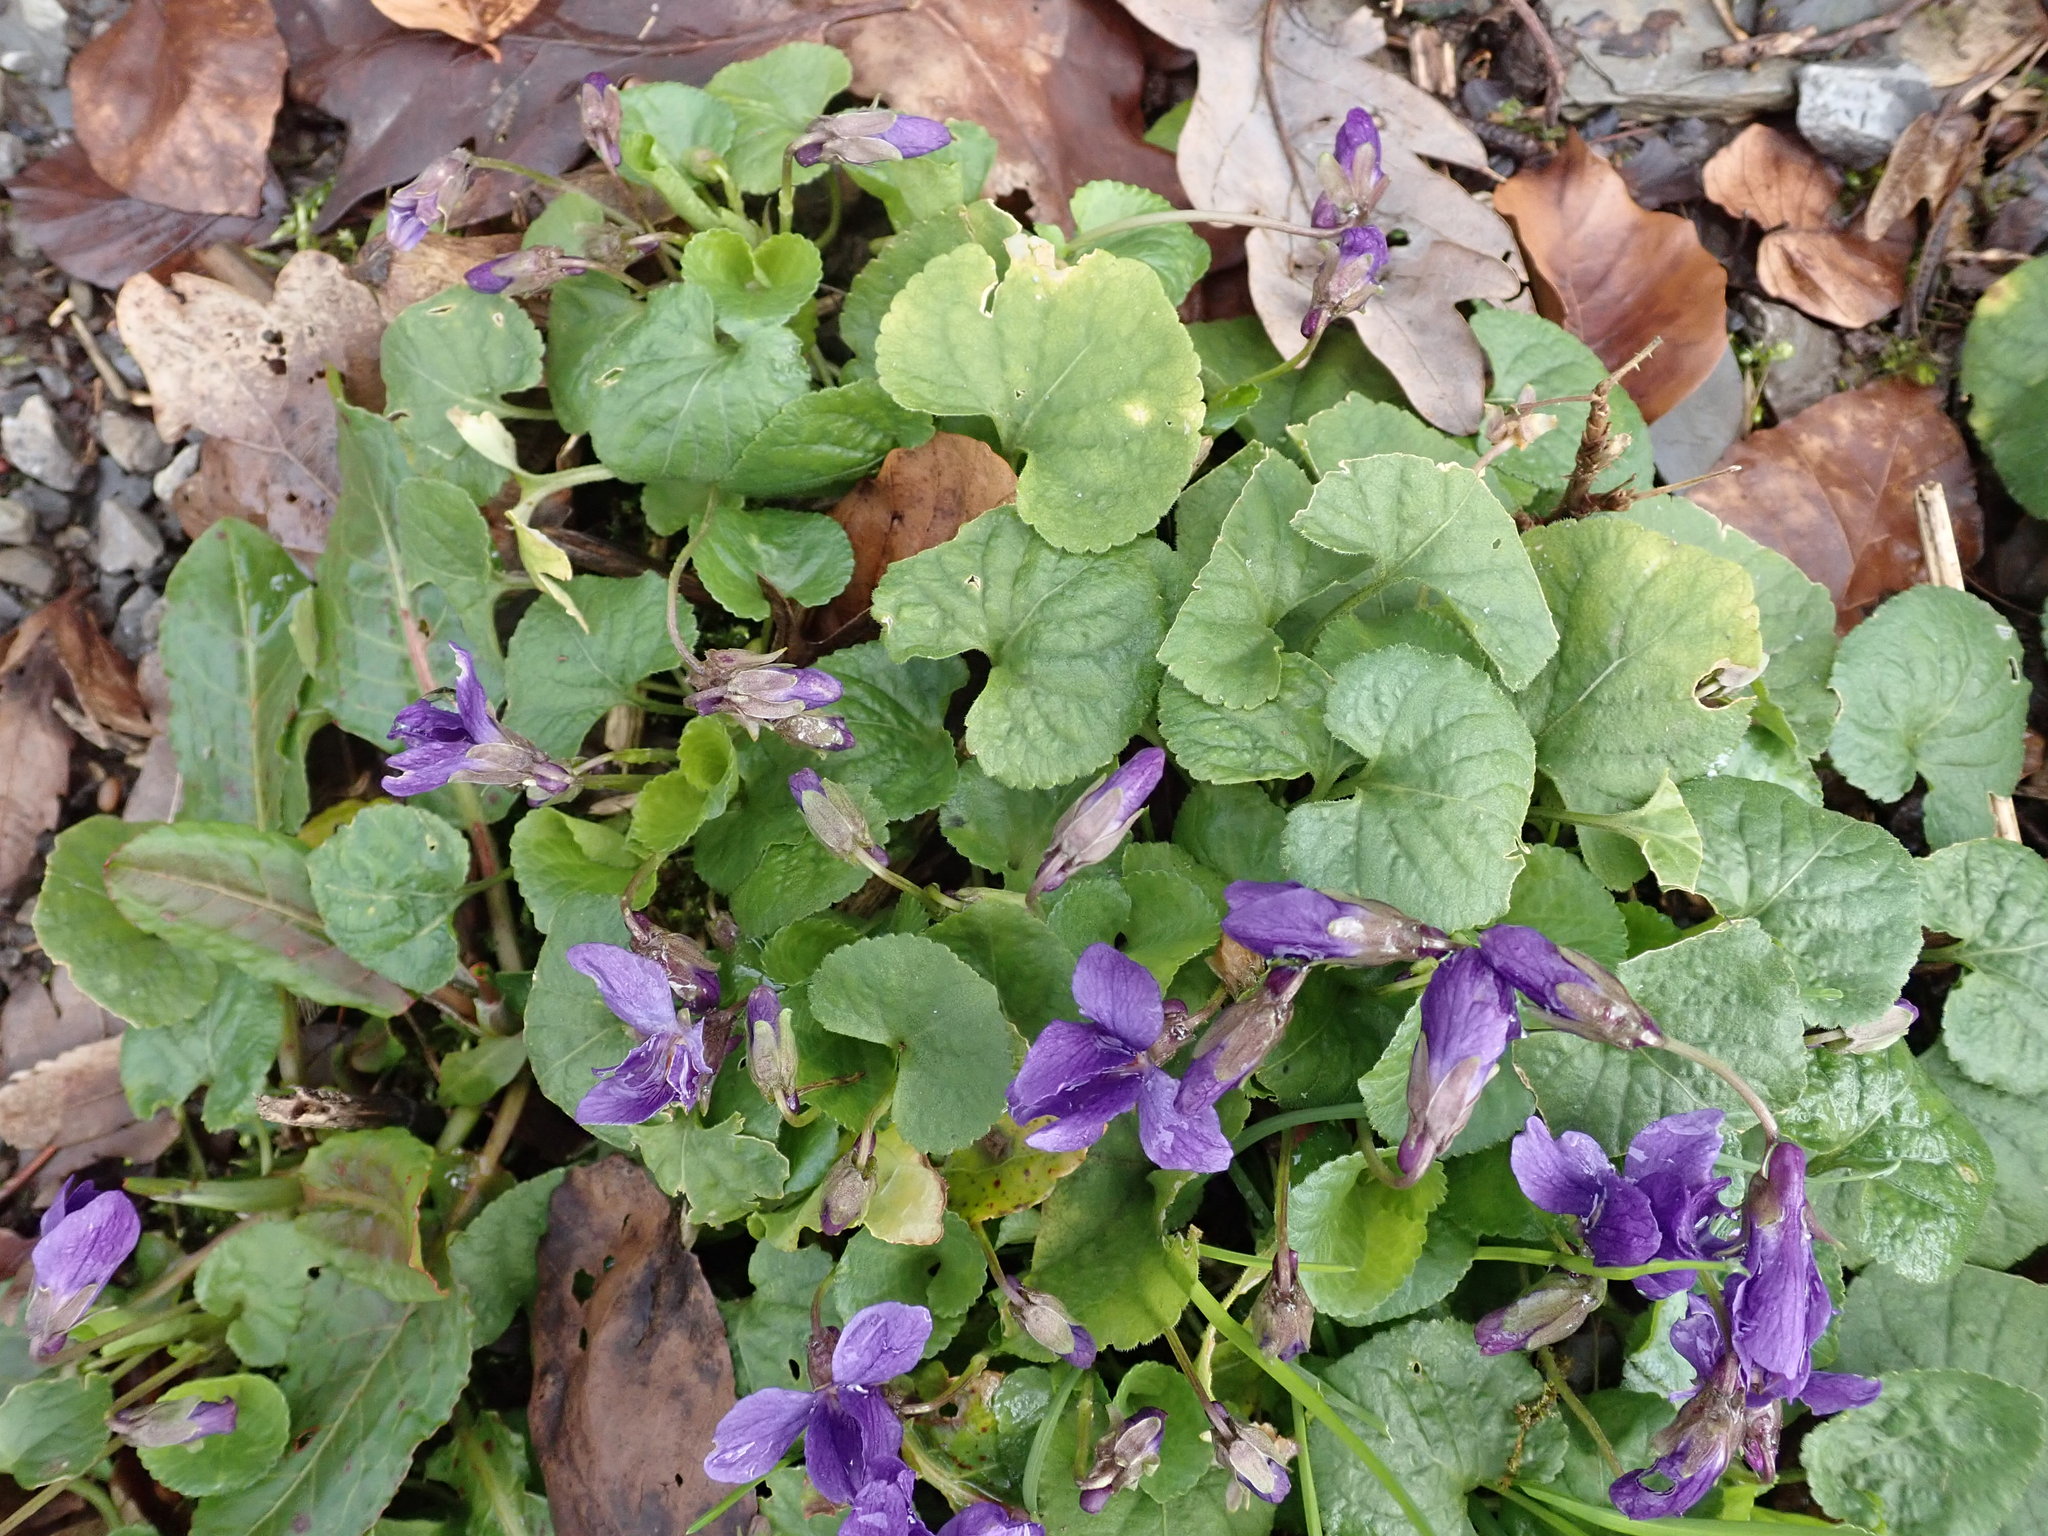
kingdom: Plantae
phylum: Tracheophyta
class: Magnoliopsida
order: Malpighiales
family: Violaceae
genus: Viola
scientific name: Viola odorata
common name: Sweet violet
